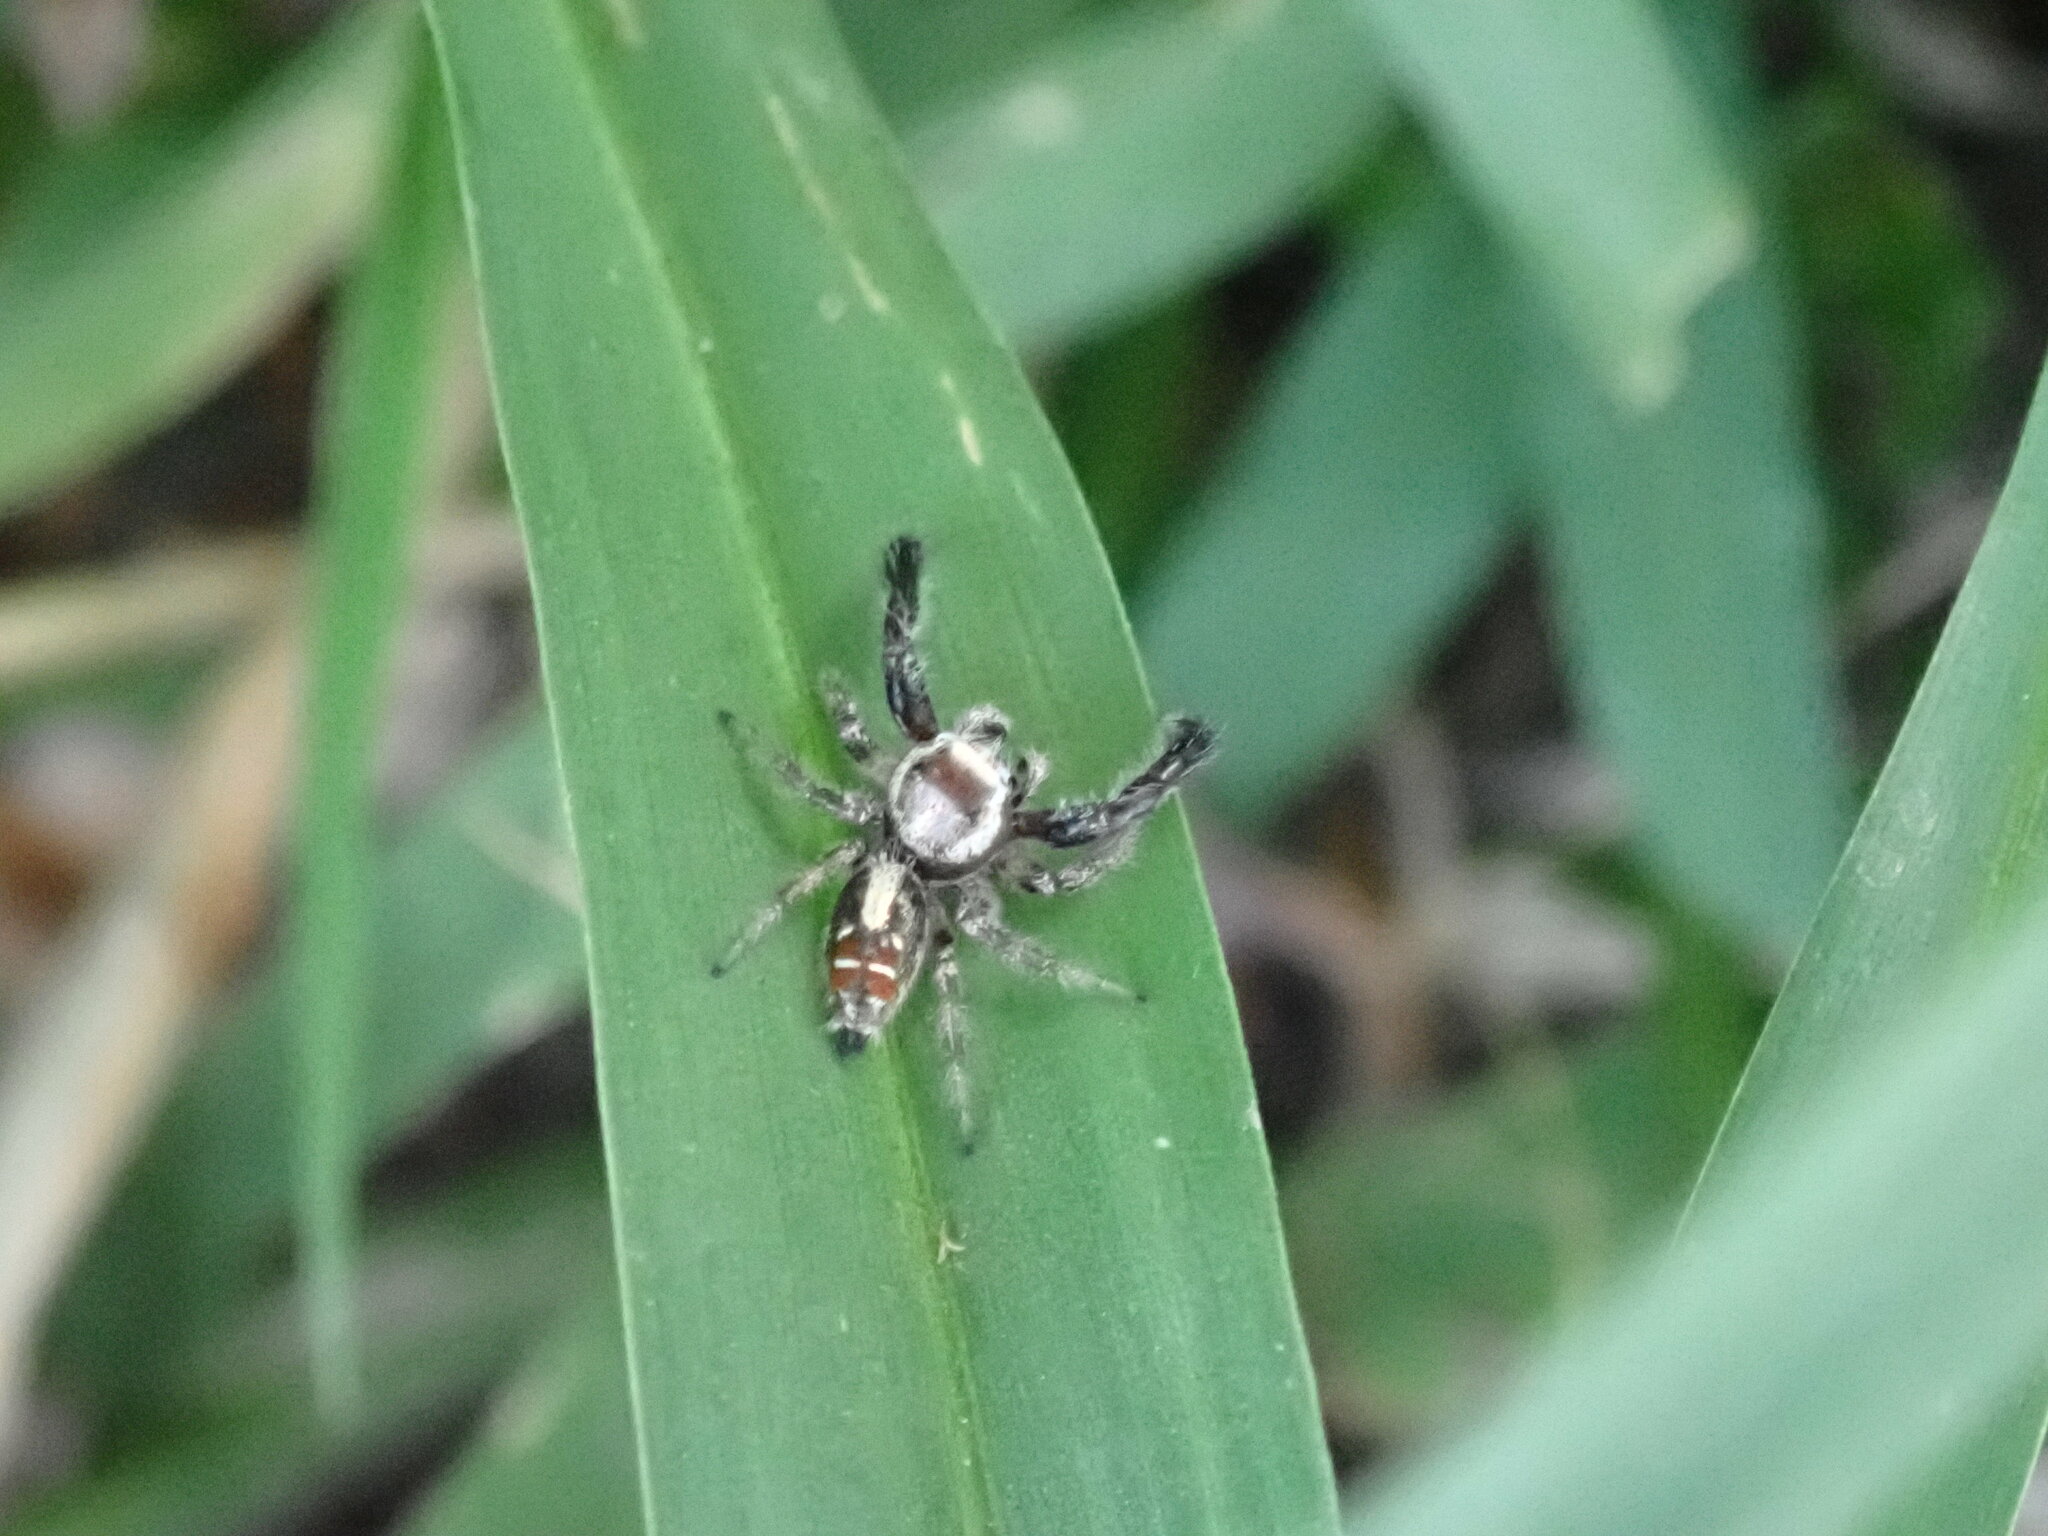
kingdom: Animalia
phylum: Arthropoda
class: Arachnida
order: Araneae
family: Salticidae
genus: Thyene
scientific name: Thyene imperialis
